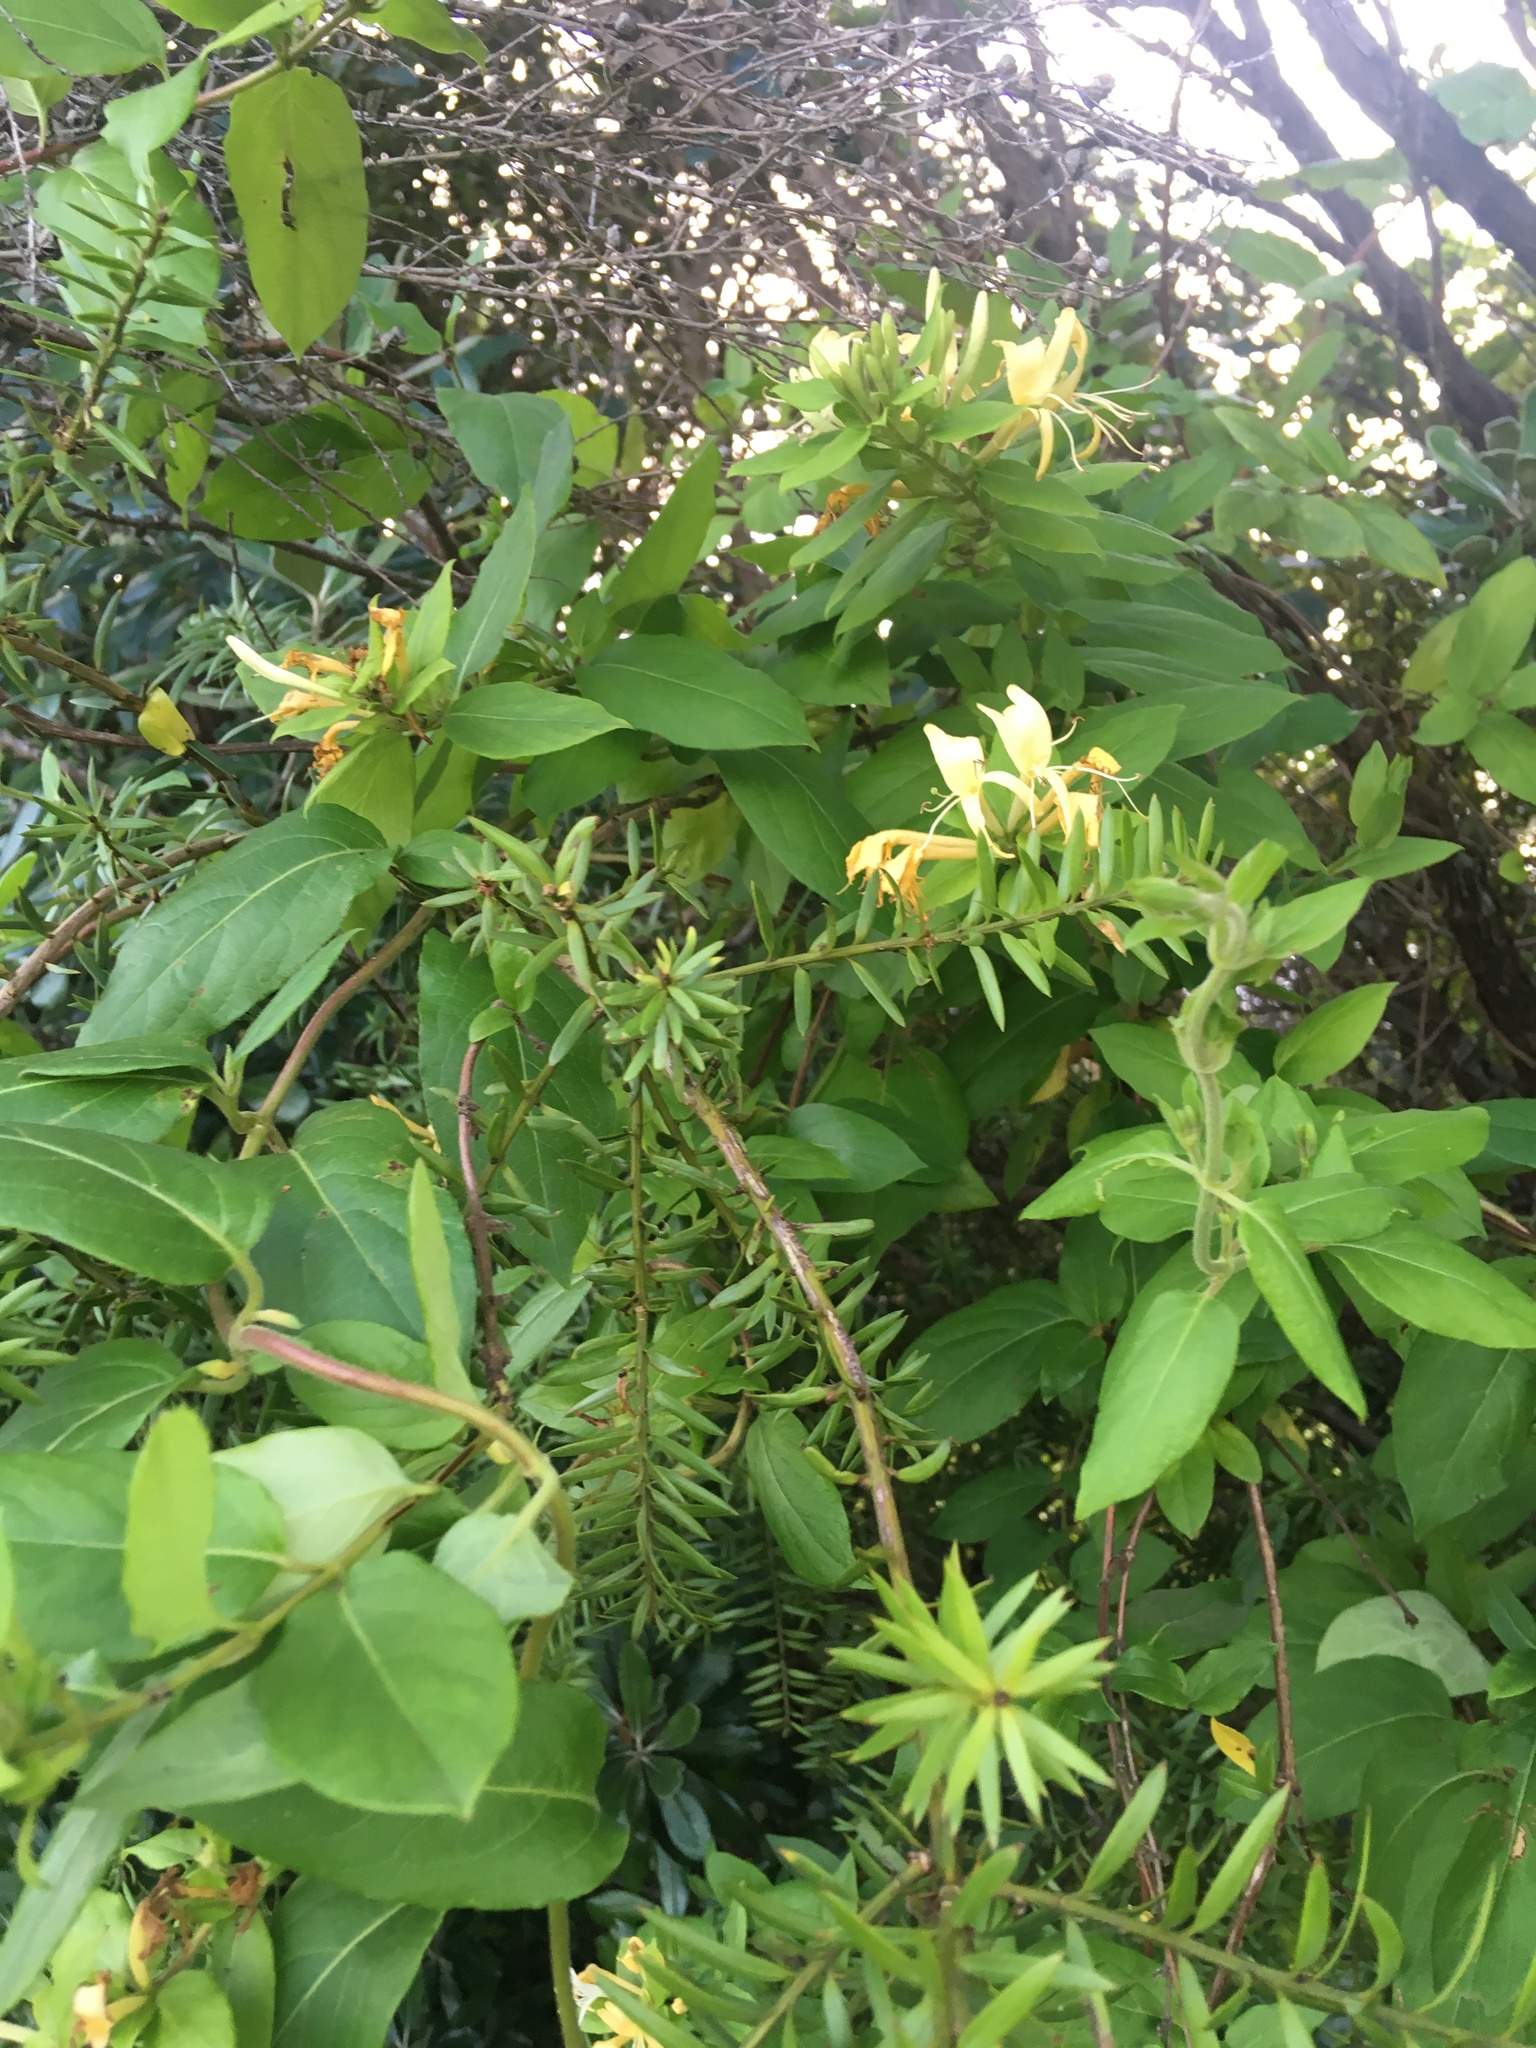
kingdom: Plantae
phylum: Tracheophyta
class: Magnoliopsida
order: Dipsacales
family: Caprifoliaceae
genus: Lonicera
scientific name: Lonicera japonica
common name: Japanese honeysuckle
